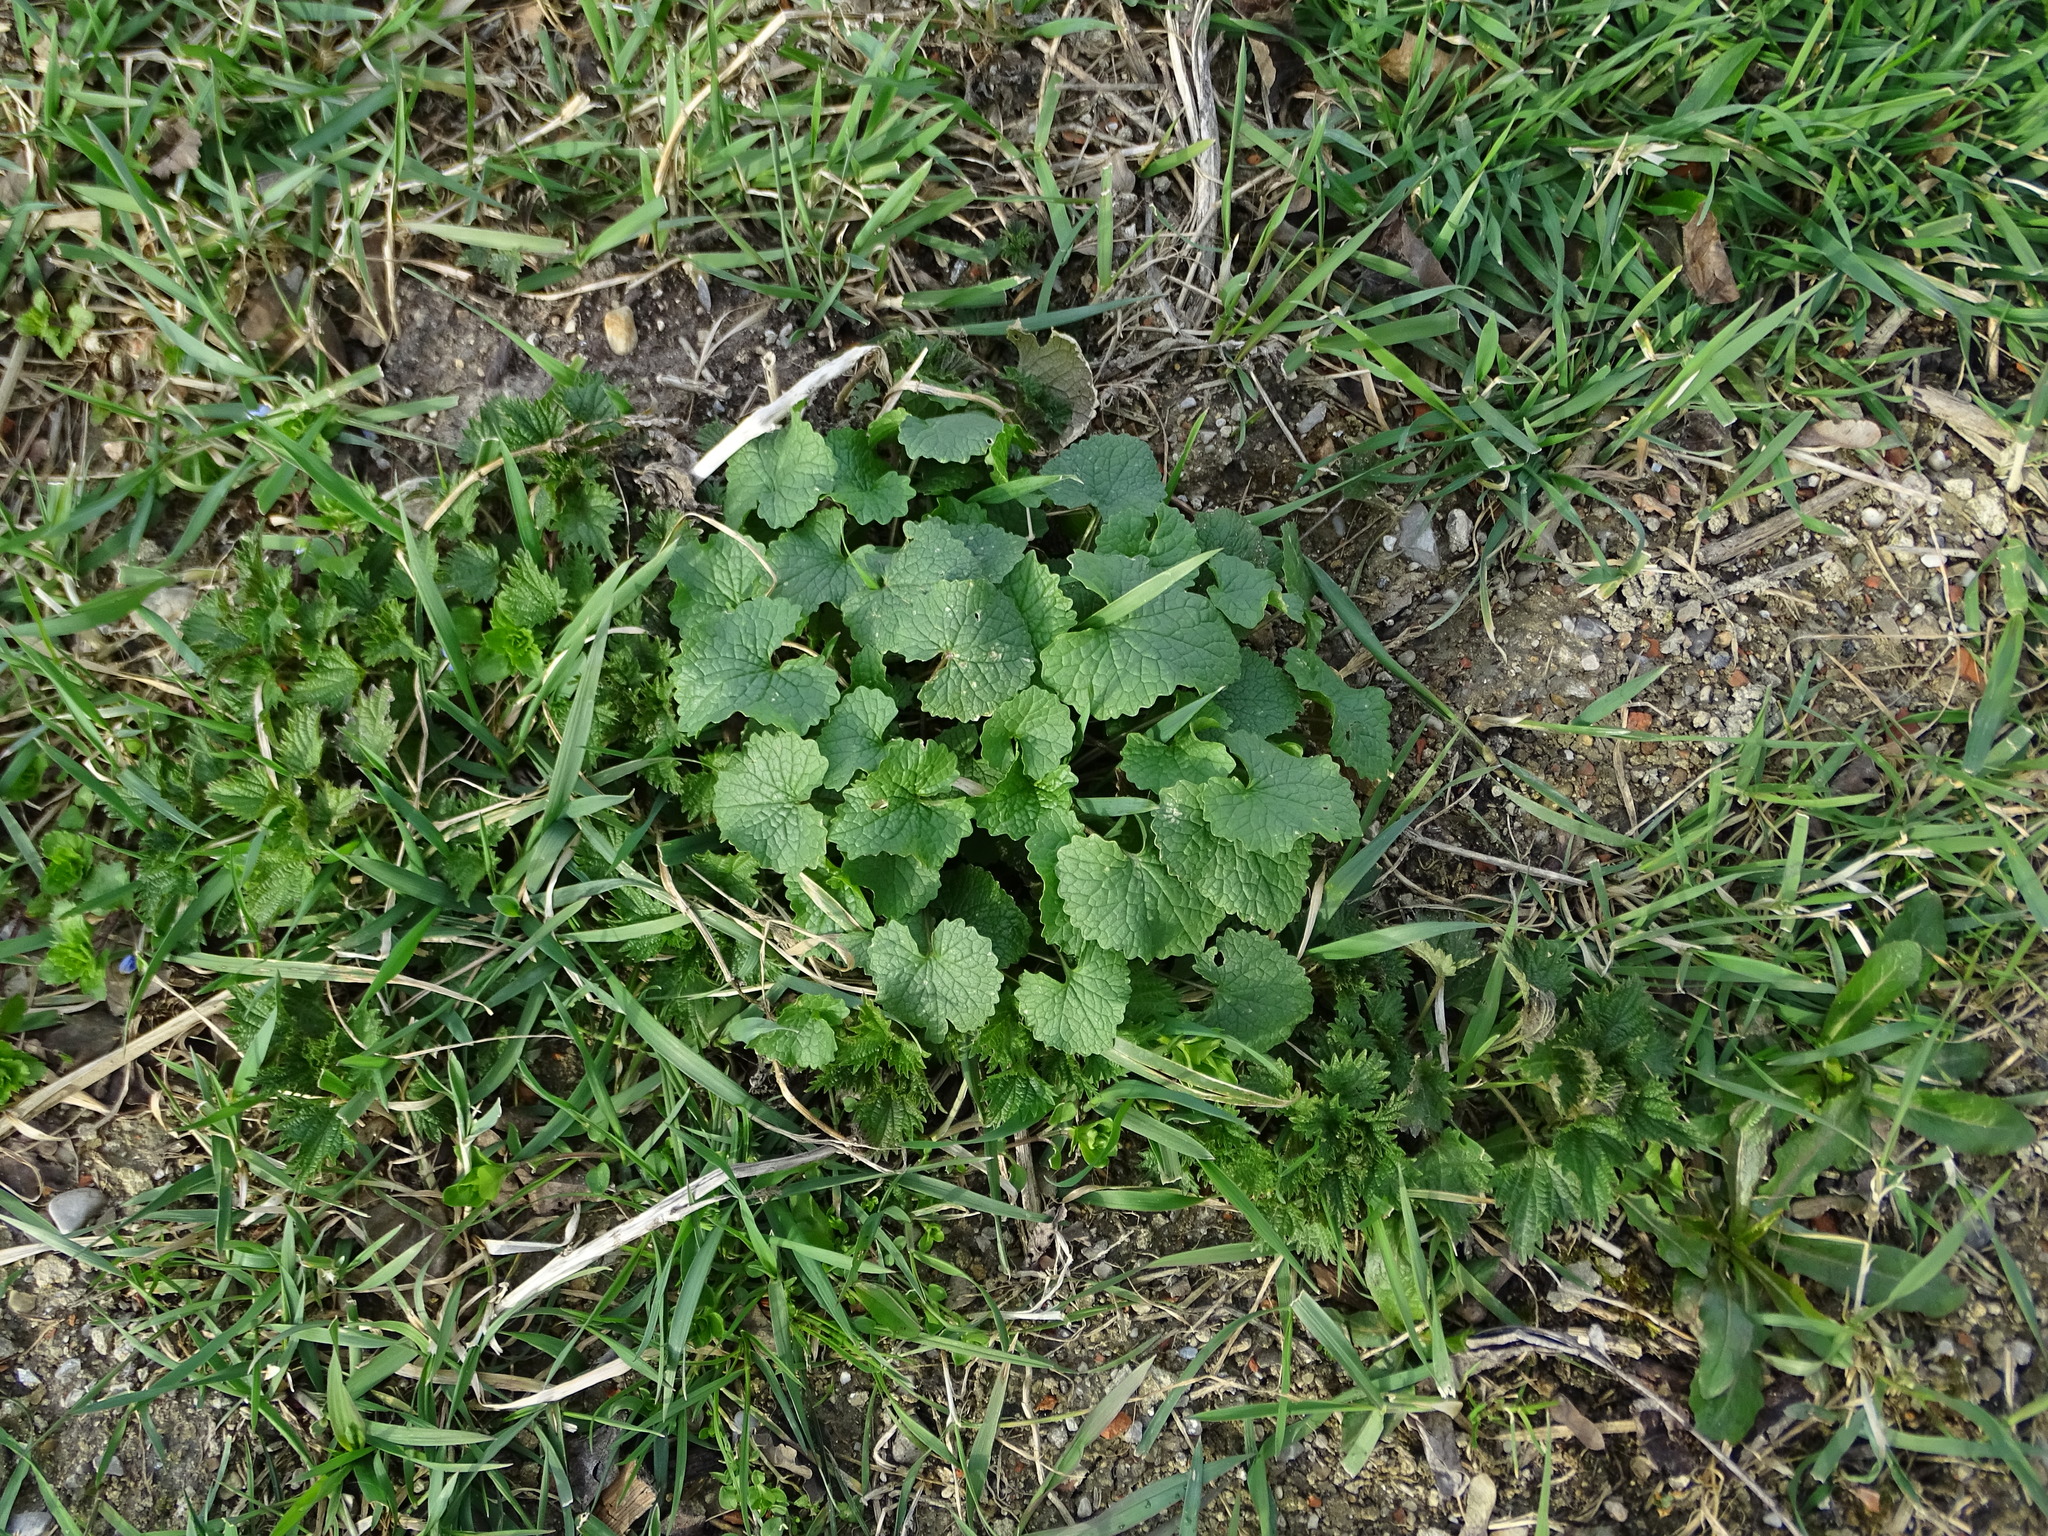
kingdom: Plantae
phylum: Tracheophyta
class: Magnoliopsida
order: Brassicales
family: Brassicaceae
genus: Alliaria
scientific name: Alliaria petiolata
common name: Garlic mustard
